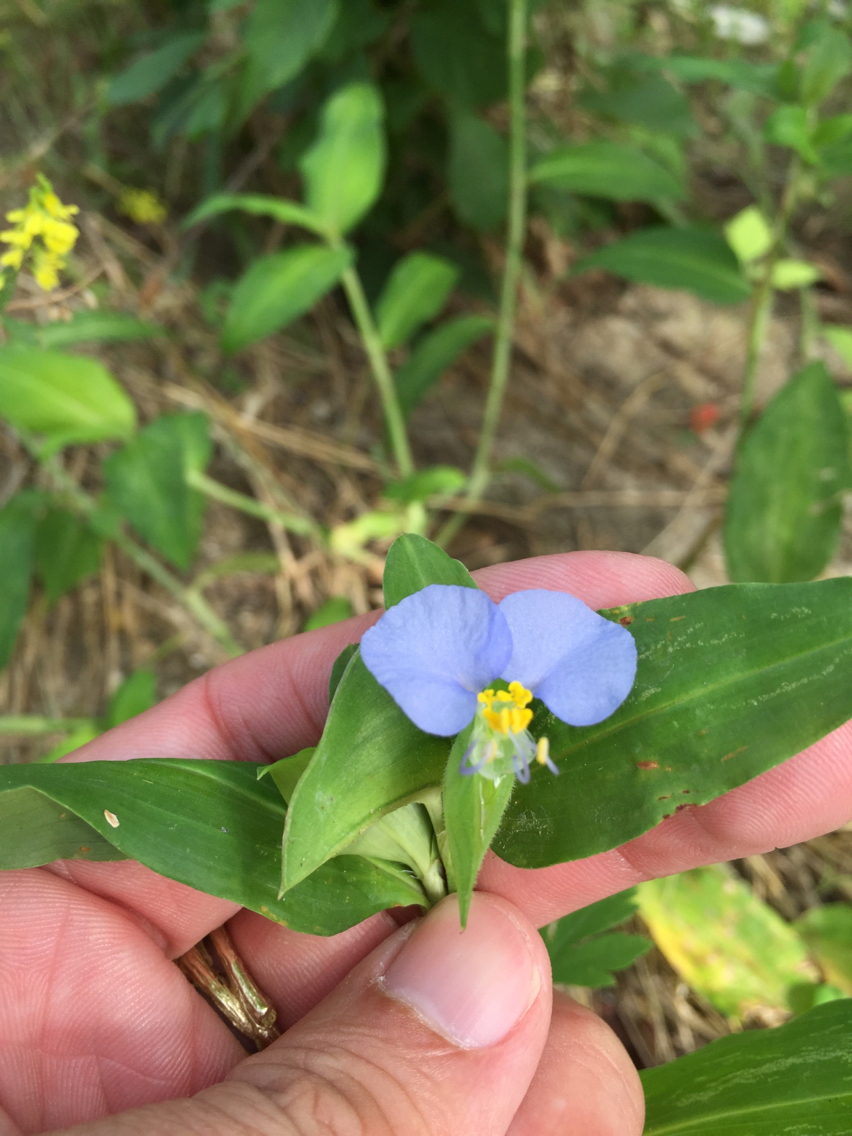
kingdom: Plantae
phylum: Tracheophyta
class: Liliopsida
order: Commelinales
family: Commelinaceae
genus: Commelina
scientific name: Commelina erecta
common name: Blousel blommetjie
